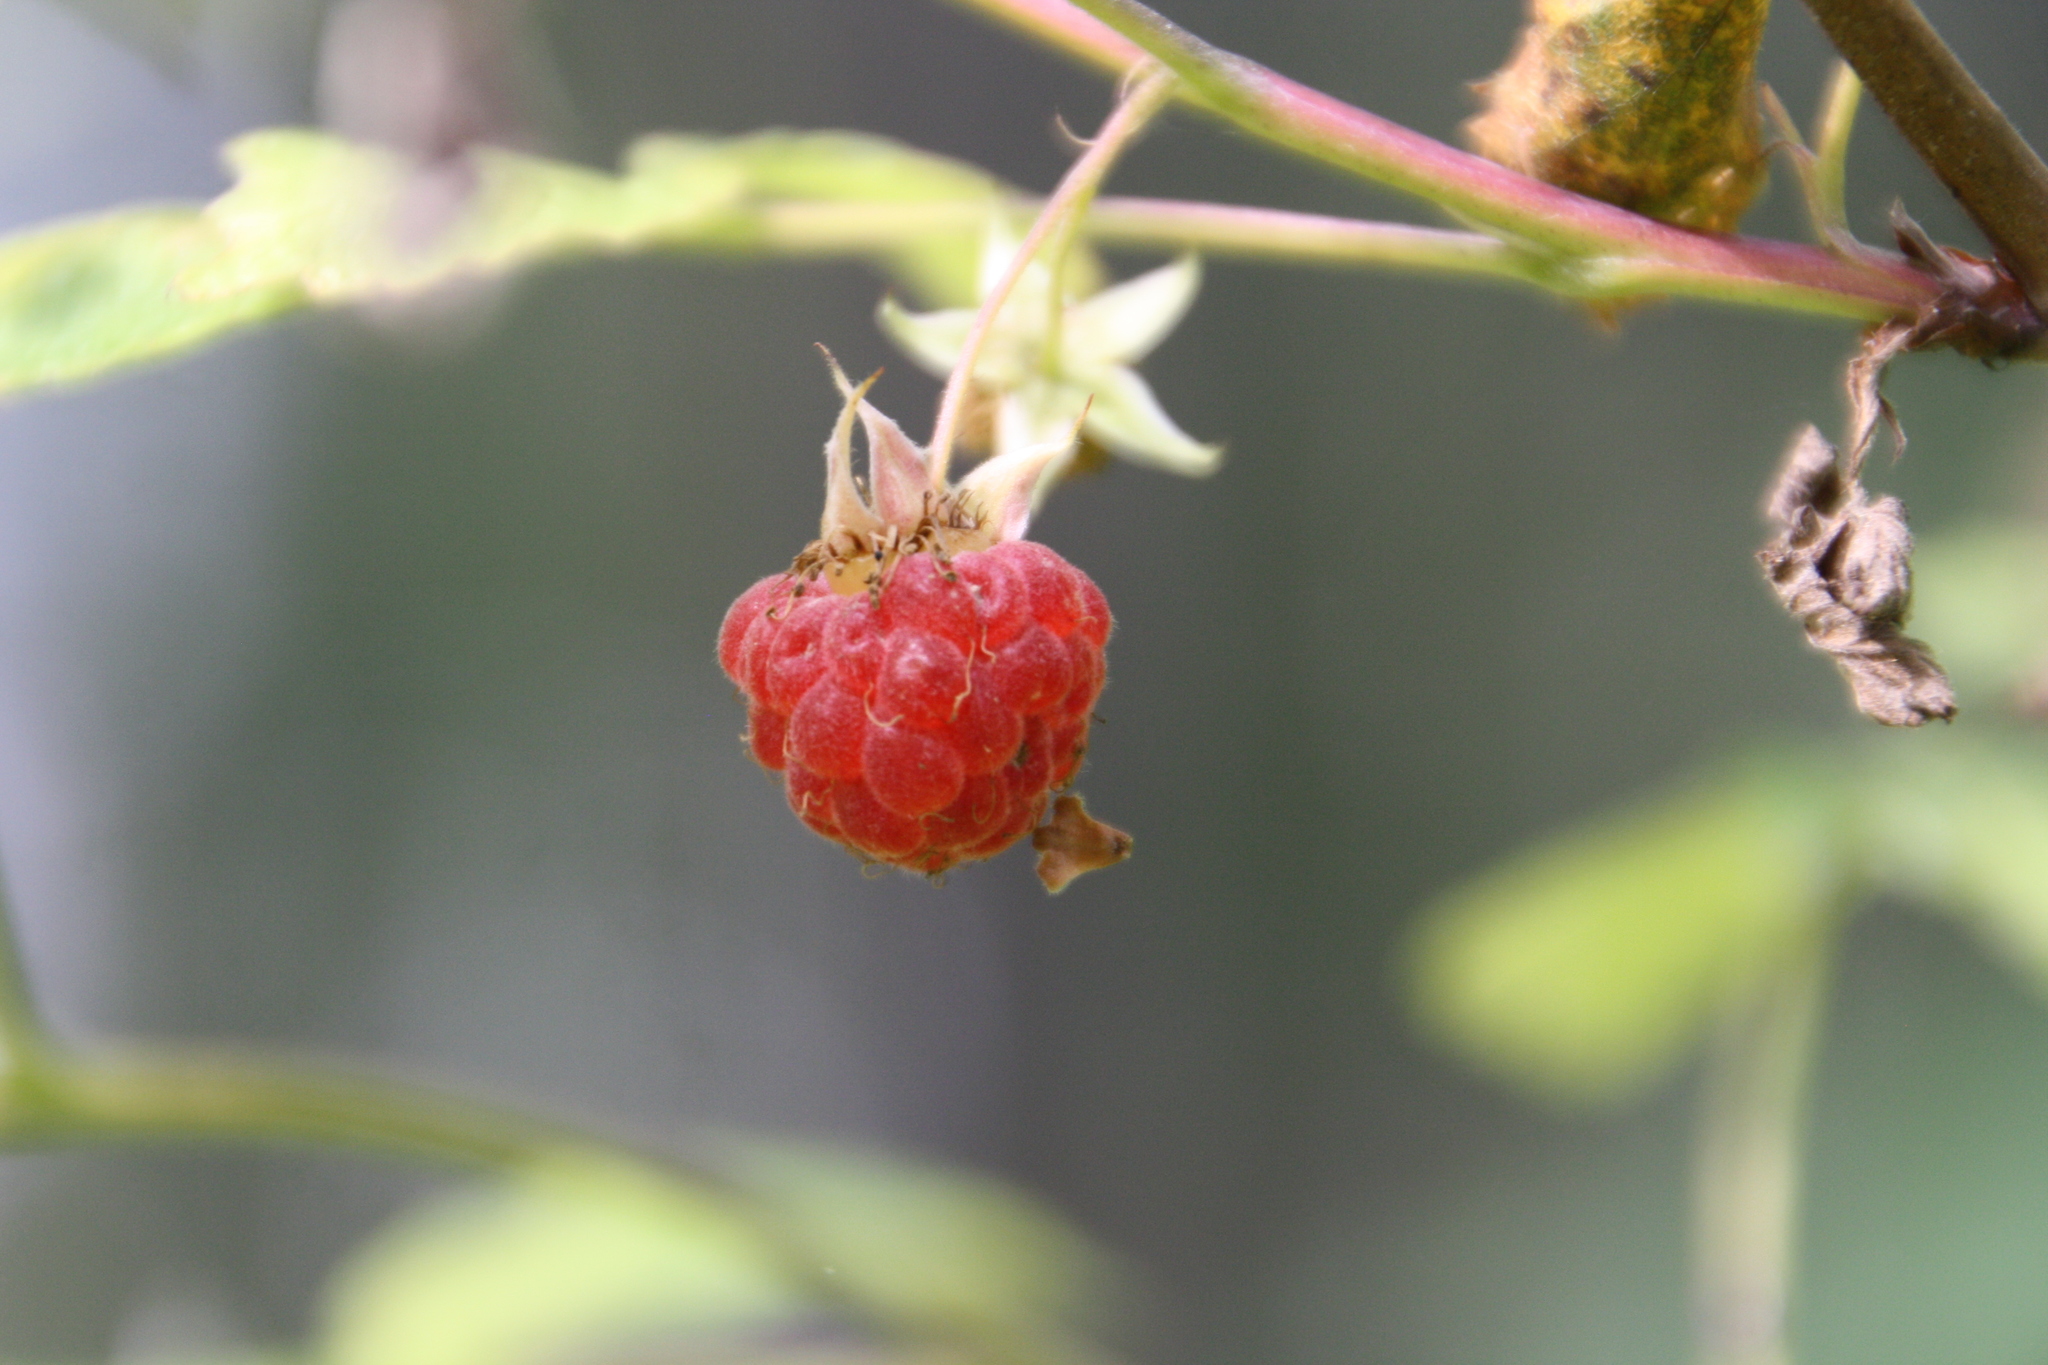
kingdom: Plantae
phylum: Tracheophyta
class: Magnoliopsida
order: Rosales
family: Rosaceae
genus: Rubus
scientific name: Rubus idaeus
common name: Raspberry
